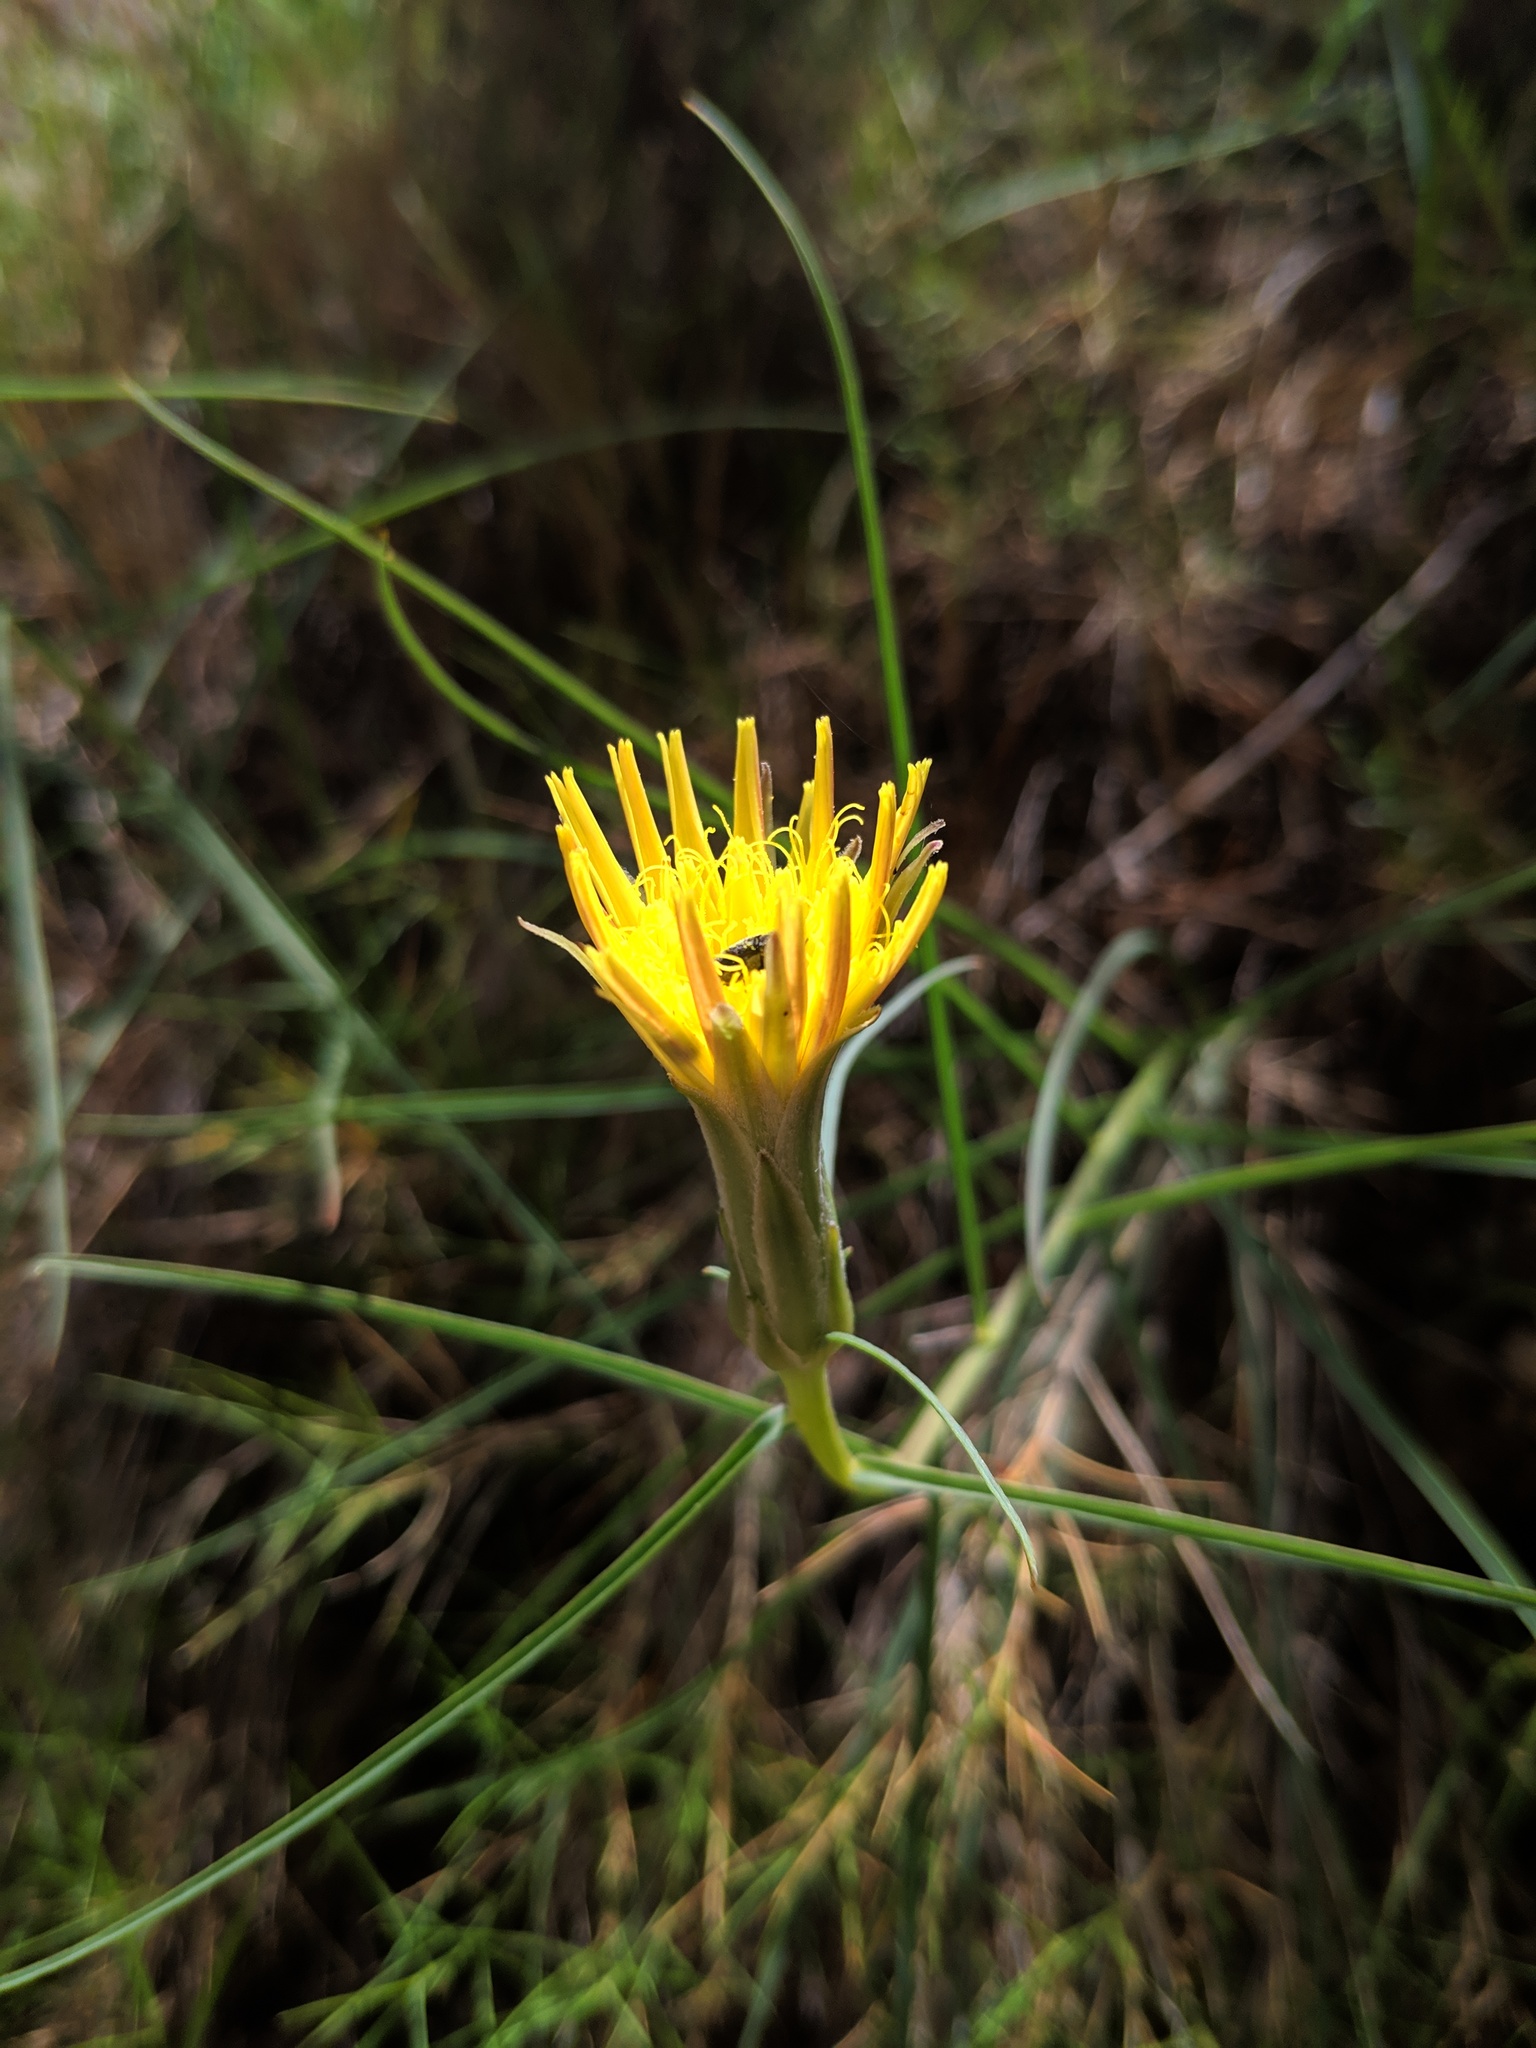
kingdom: Plantae
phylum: Tracheophyta
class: Magnoliopsida
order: Asterales
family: Asteraceae
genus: Scorzonera
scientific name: Scorzonera angustifolia
